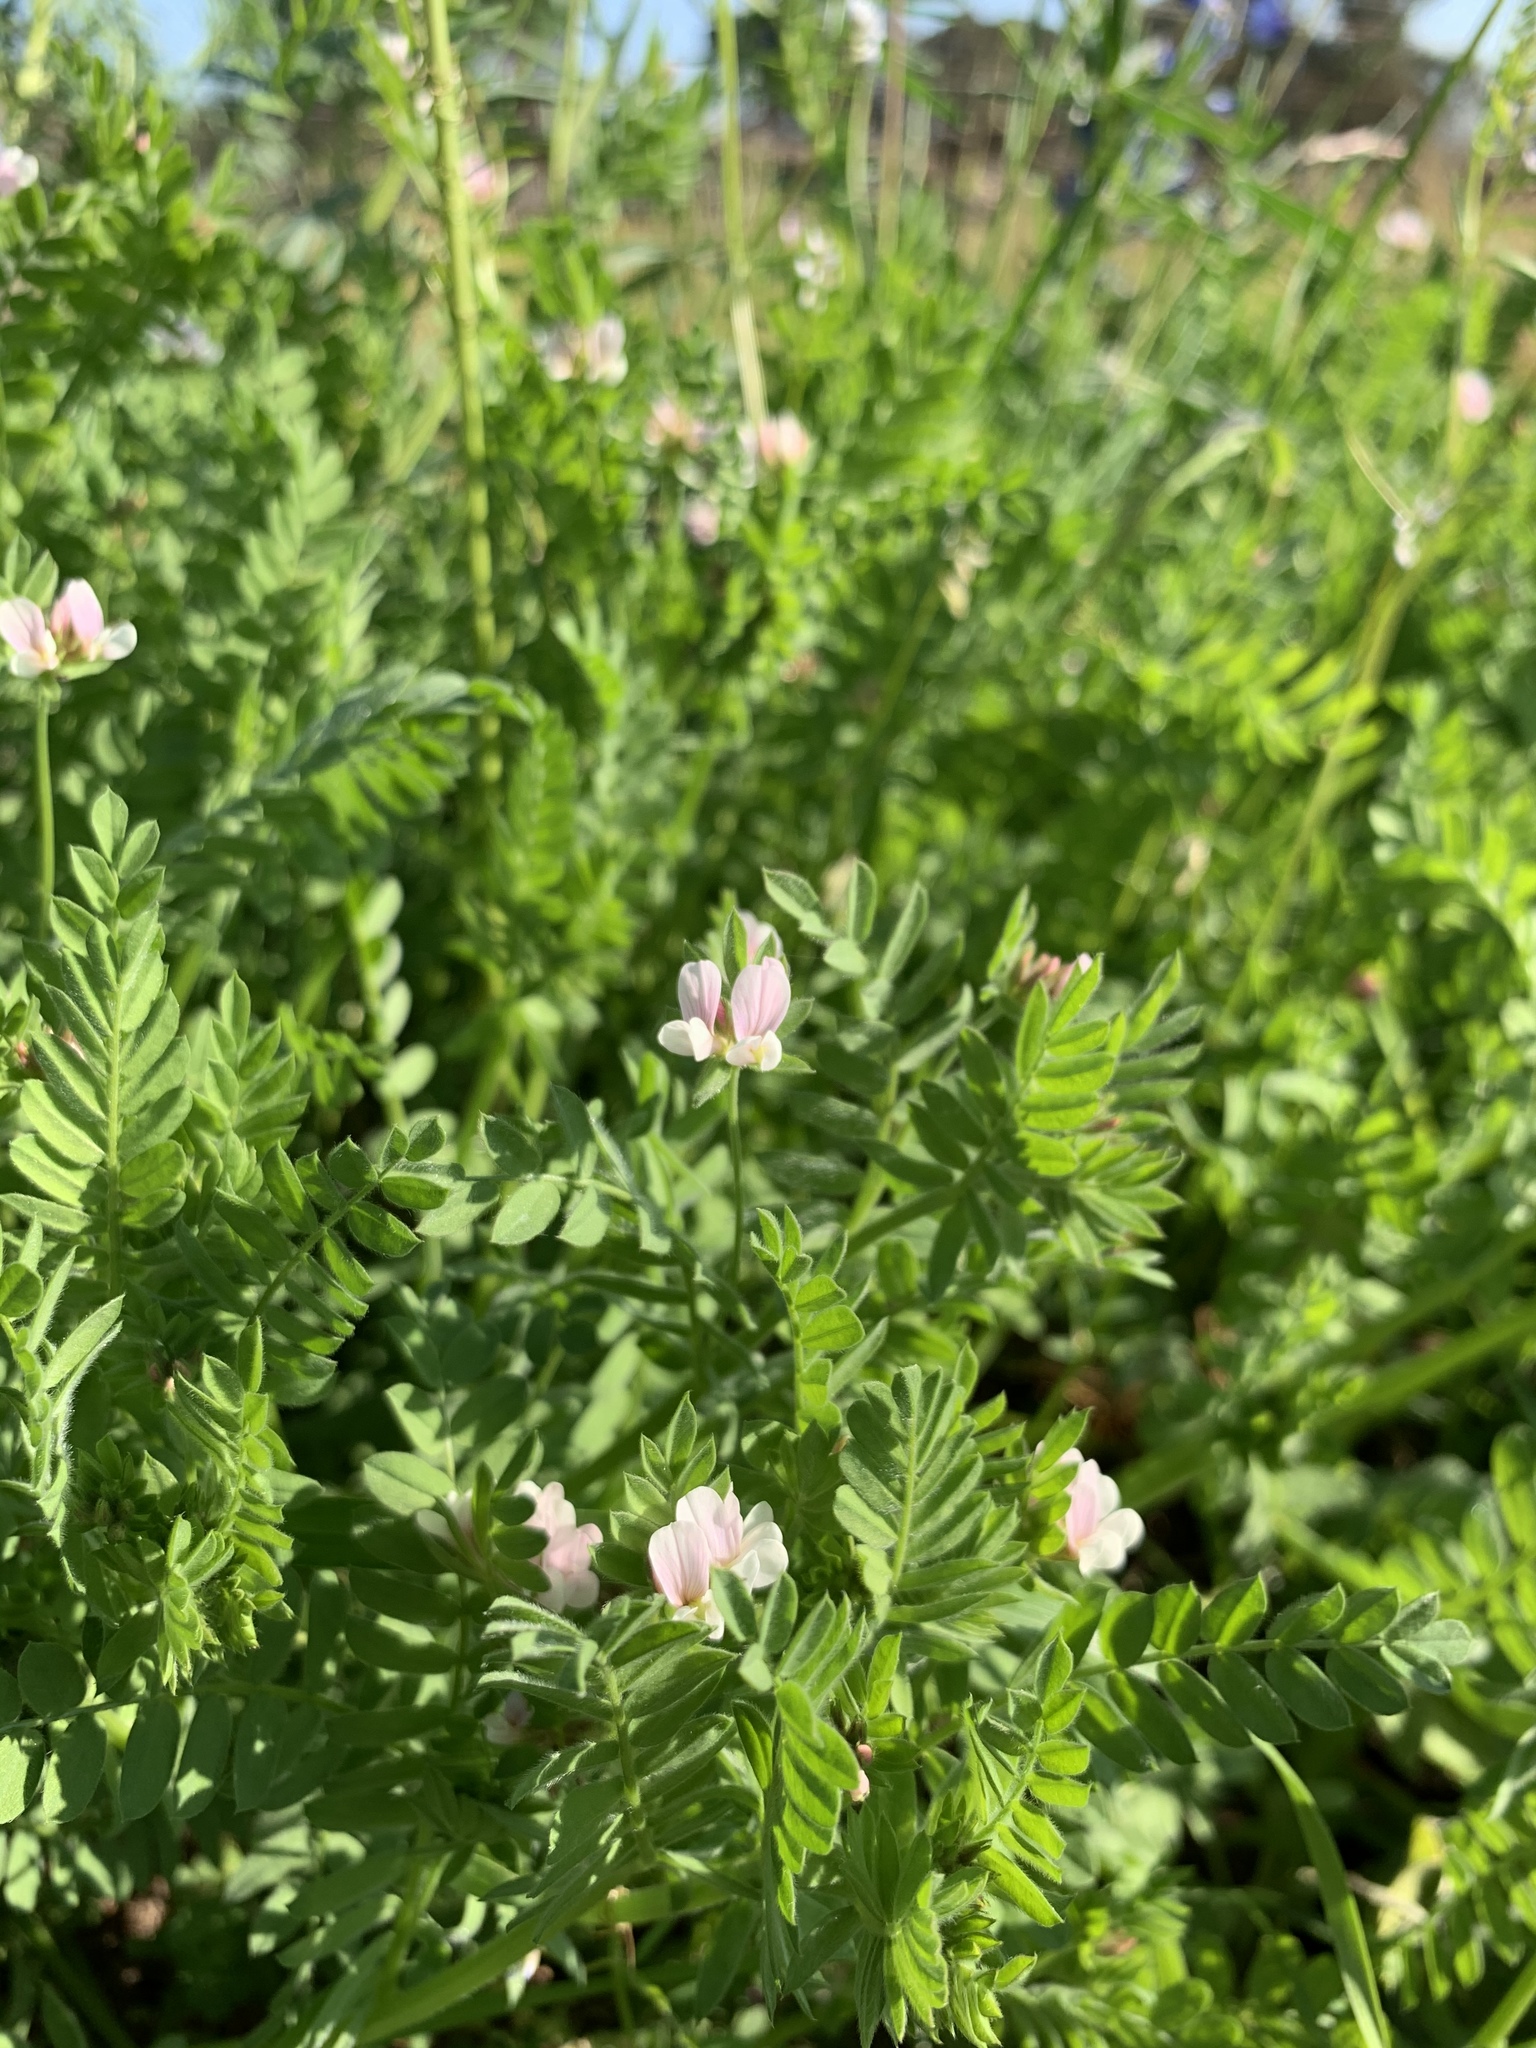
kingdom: Plantae
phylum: Tracheophyta
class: Magnoliopsida
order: Fabales
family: Fabaceae
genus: Ornithopus
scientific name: Ornithopus sativus
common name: Serradella
